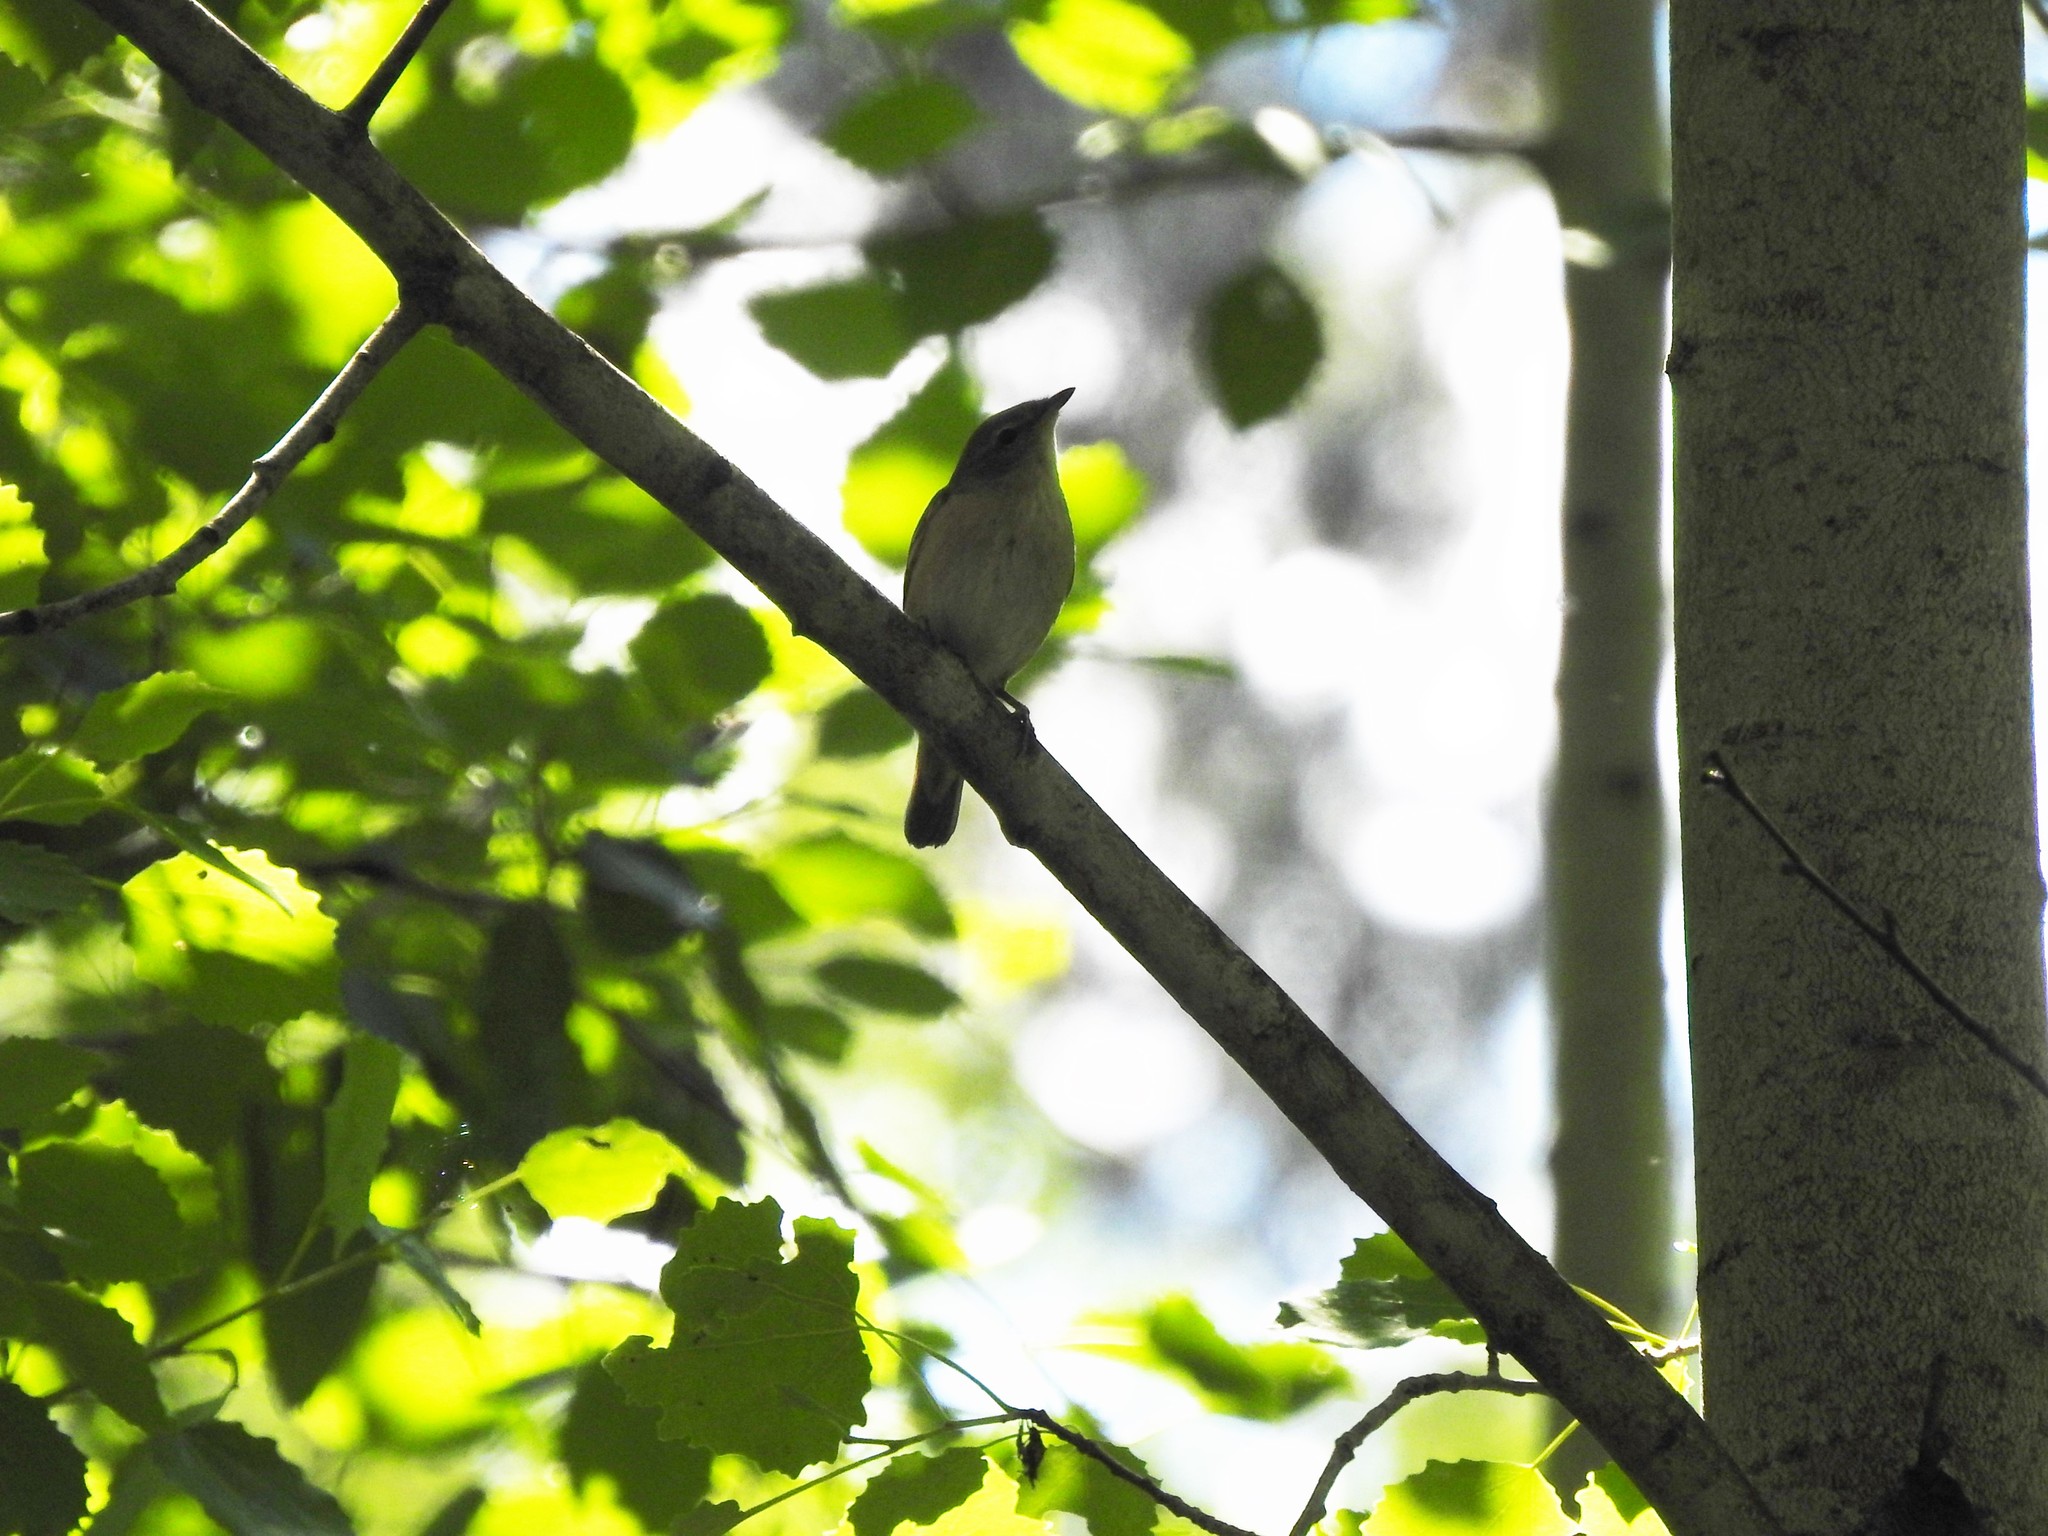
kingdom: Animalia
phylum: Chordata
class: Aves
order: Passeriformes
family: Sylviidae
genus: Sylvia
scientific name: Sylvia borin
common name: Garden warbler
